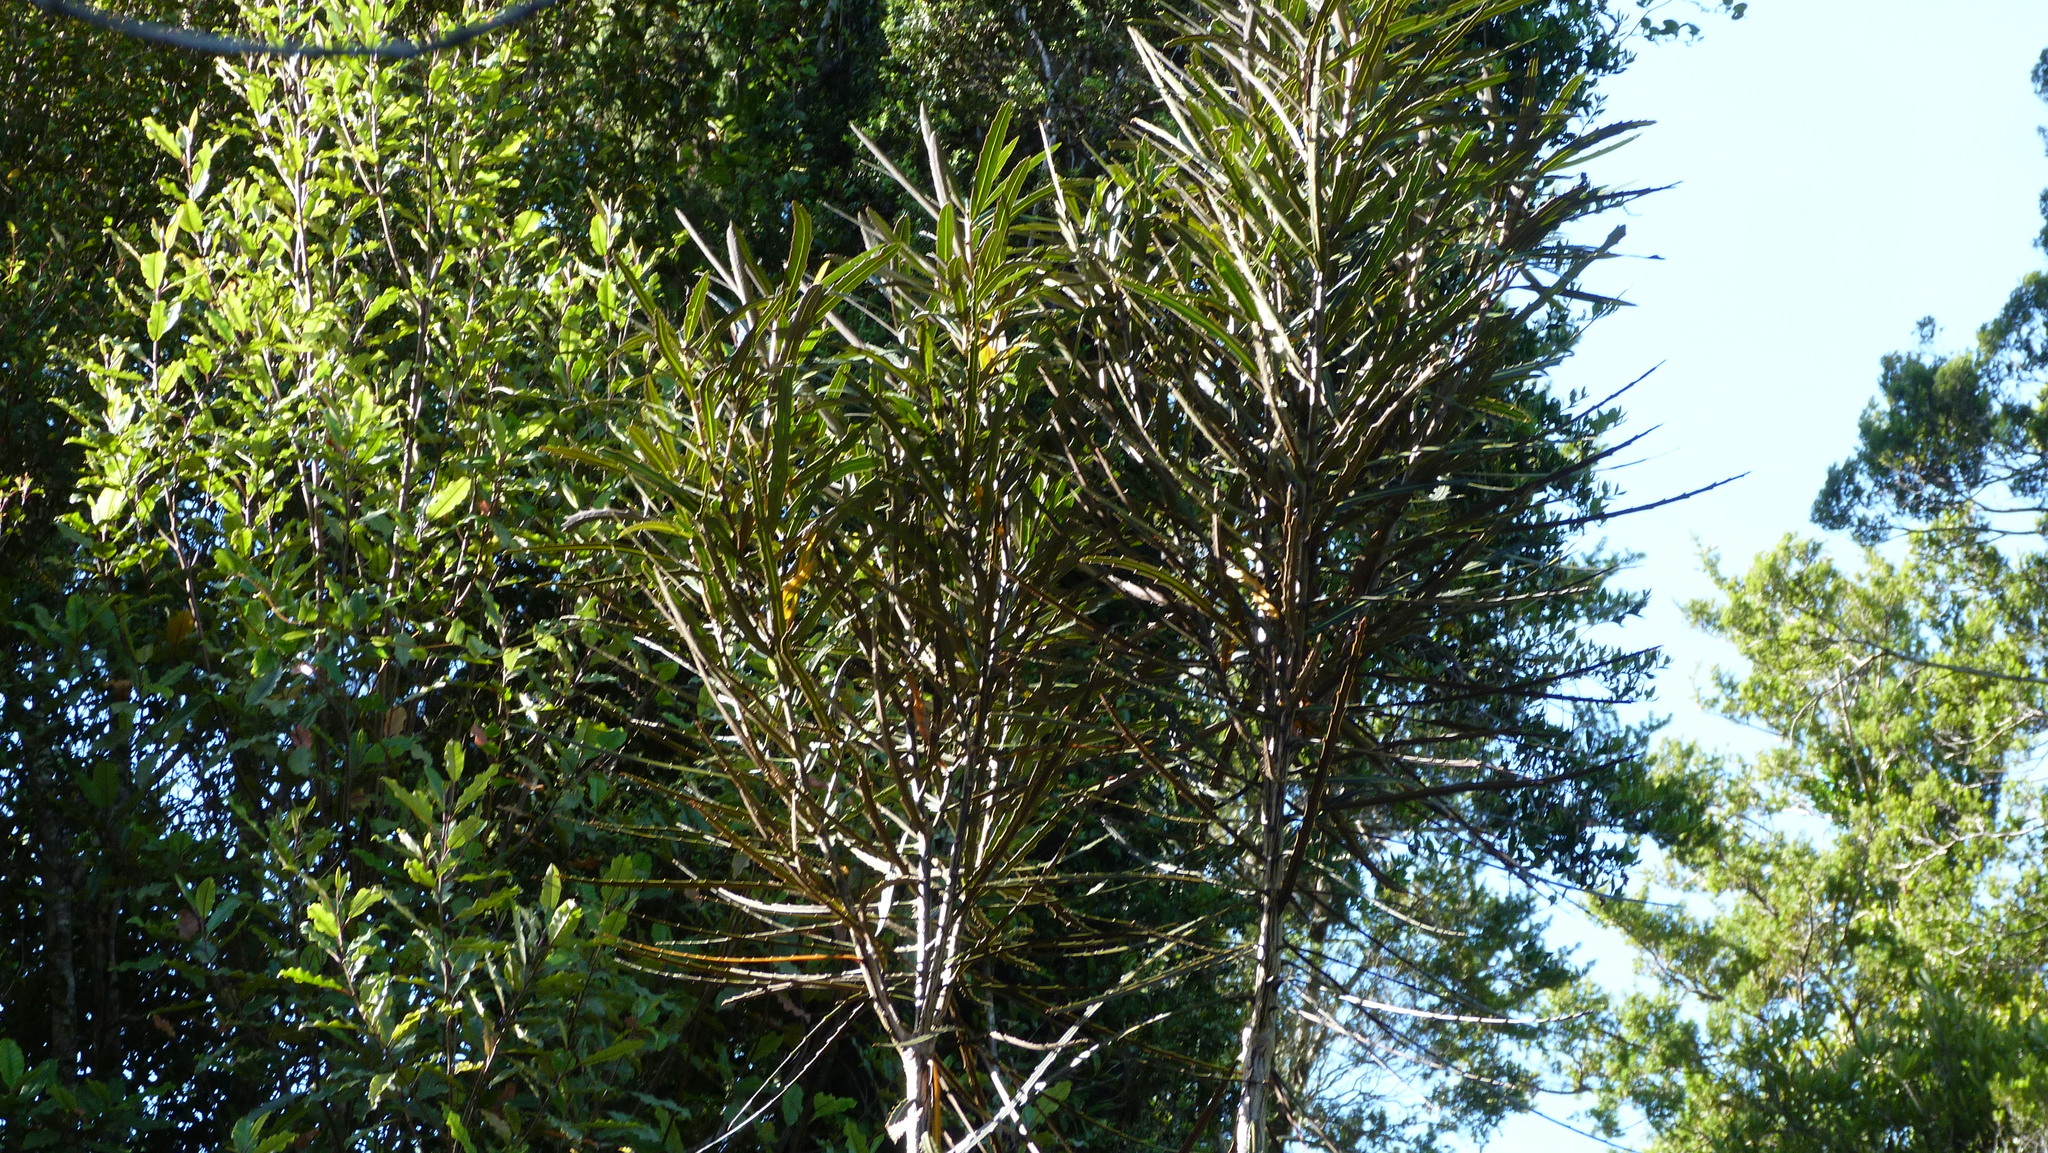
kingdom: Plantae
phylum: Tracheophyta
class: Magnoliopsida
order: Apiales
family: Araliaceae
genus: Pseudopanax
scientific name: Pseudopanax crassifolius
